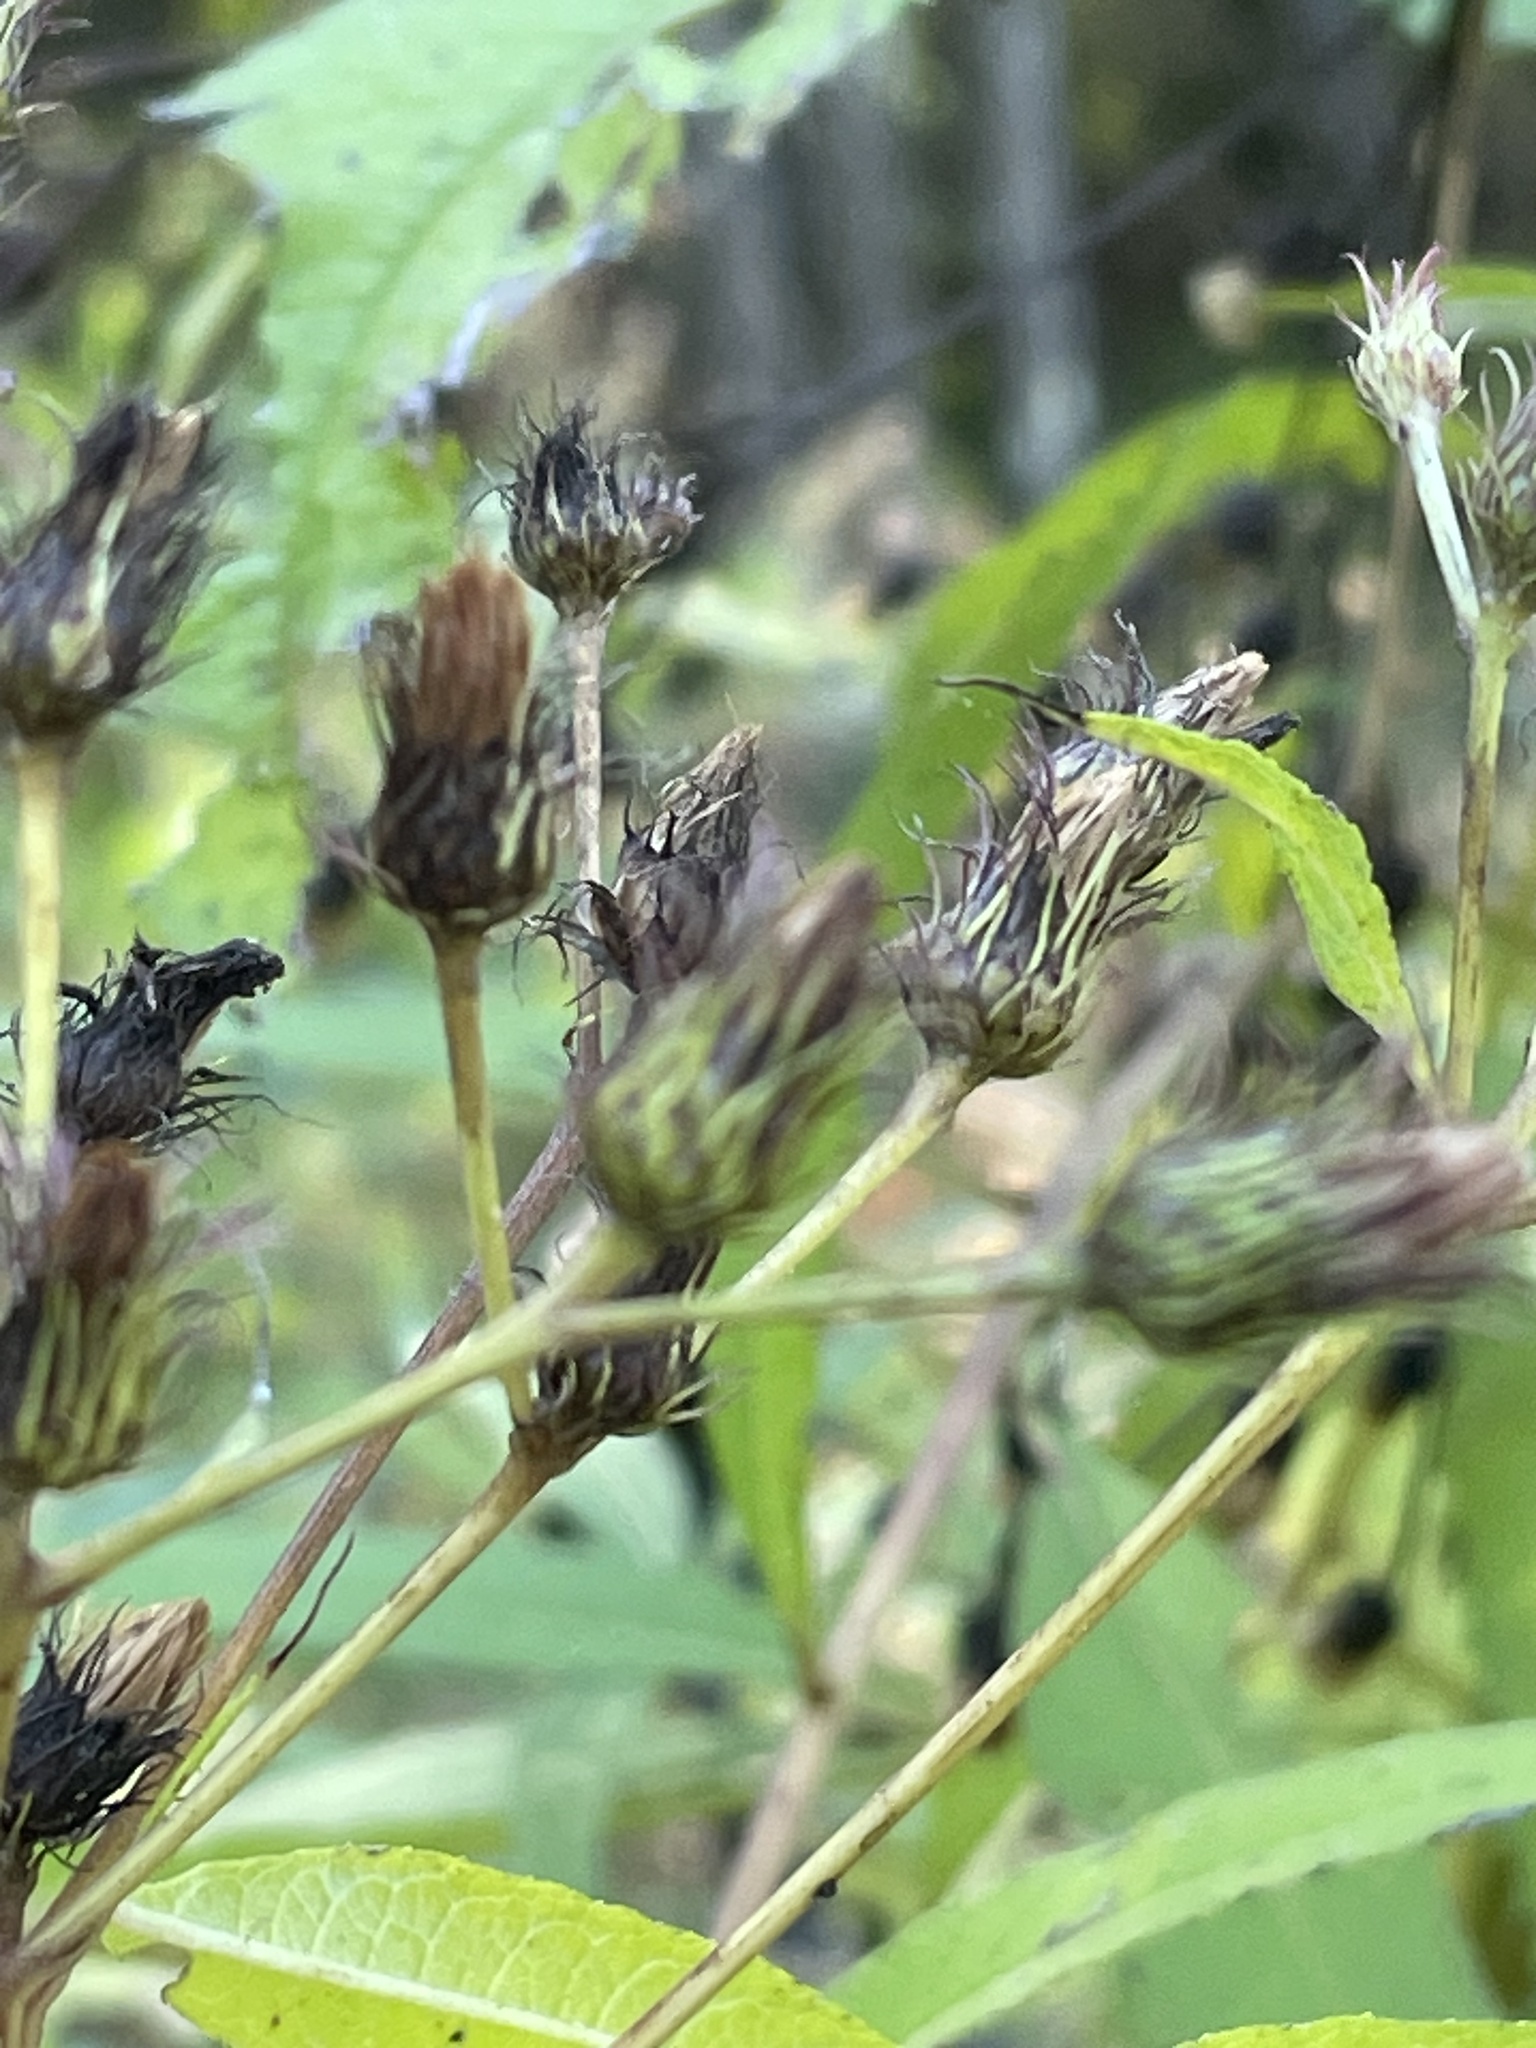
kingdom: Plantae
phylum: Tracheophyta
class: Magnoliopsida
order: Asterales
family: Asteraceae
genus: Vernonia
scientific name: Vernonia noveboracensis
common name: New york ironweed
